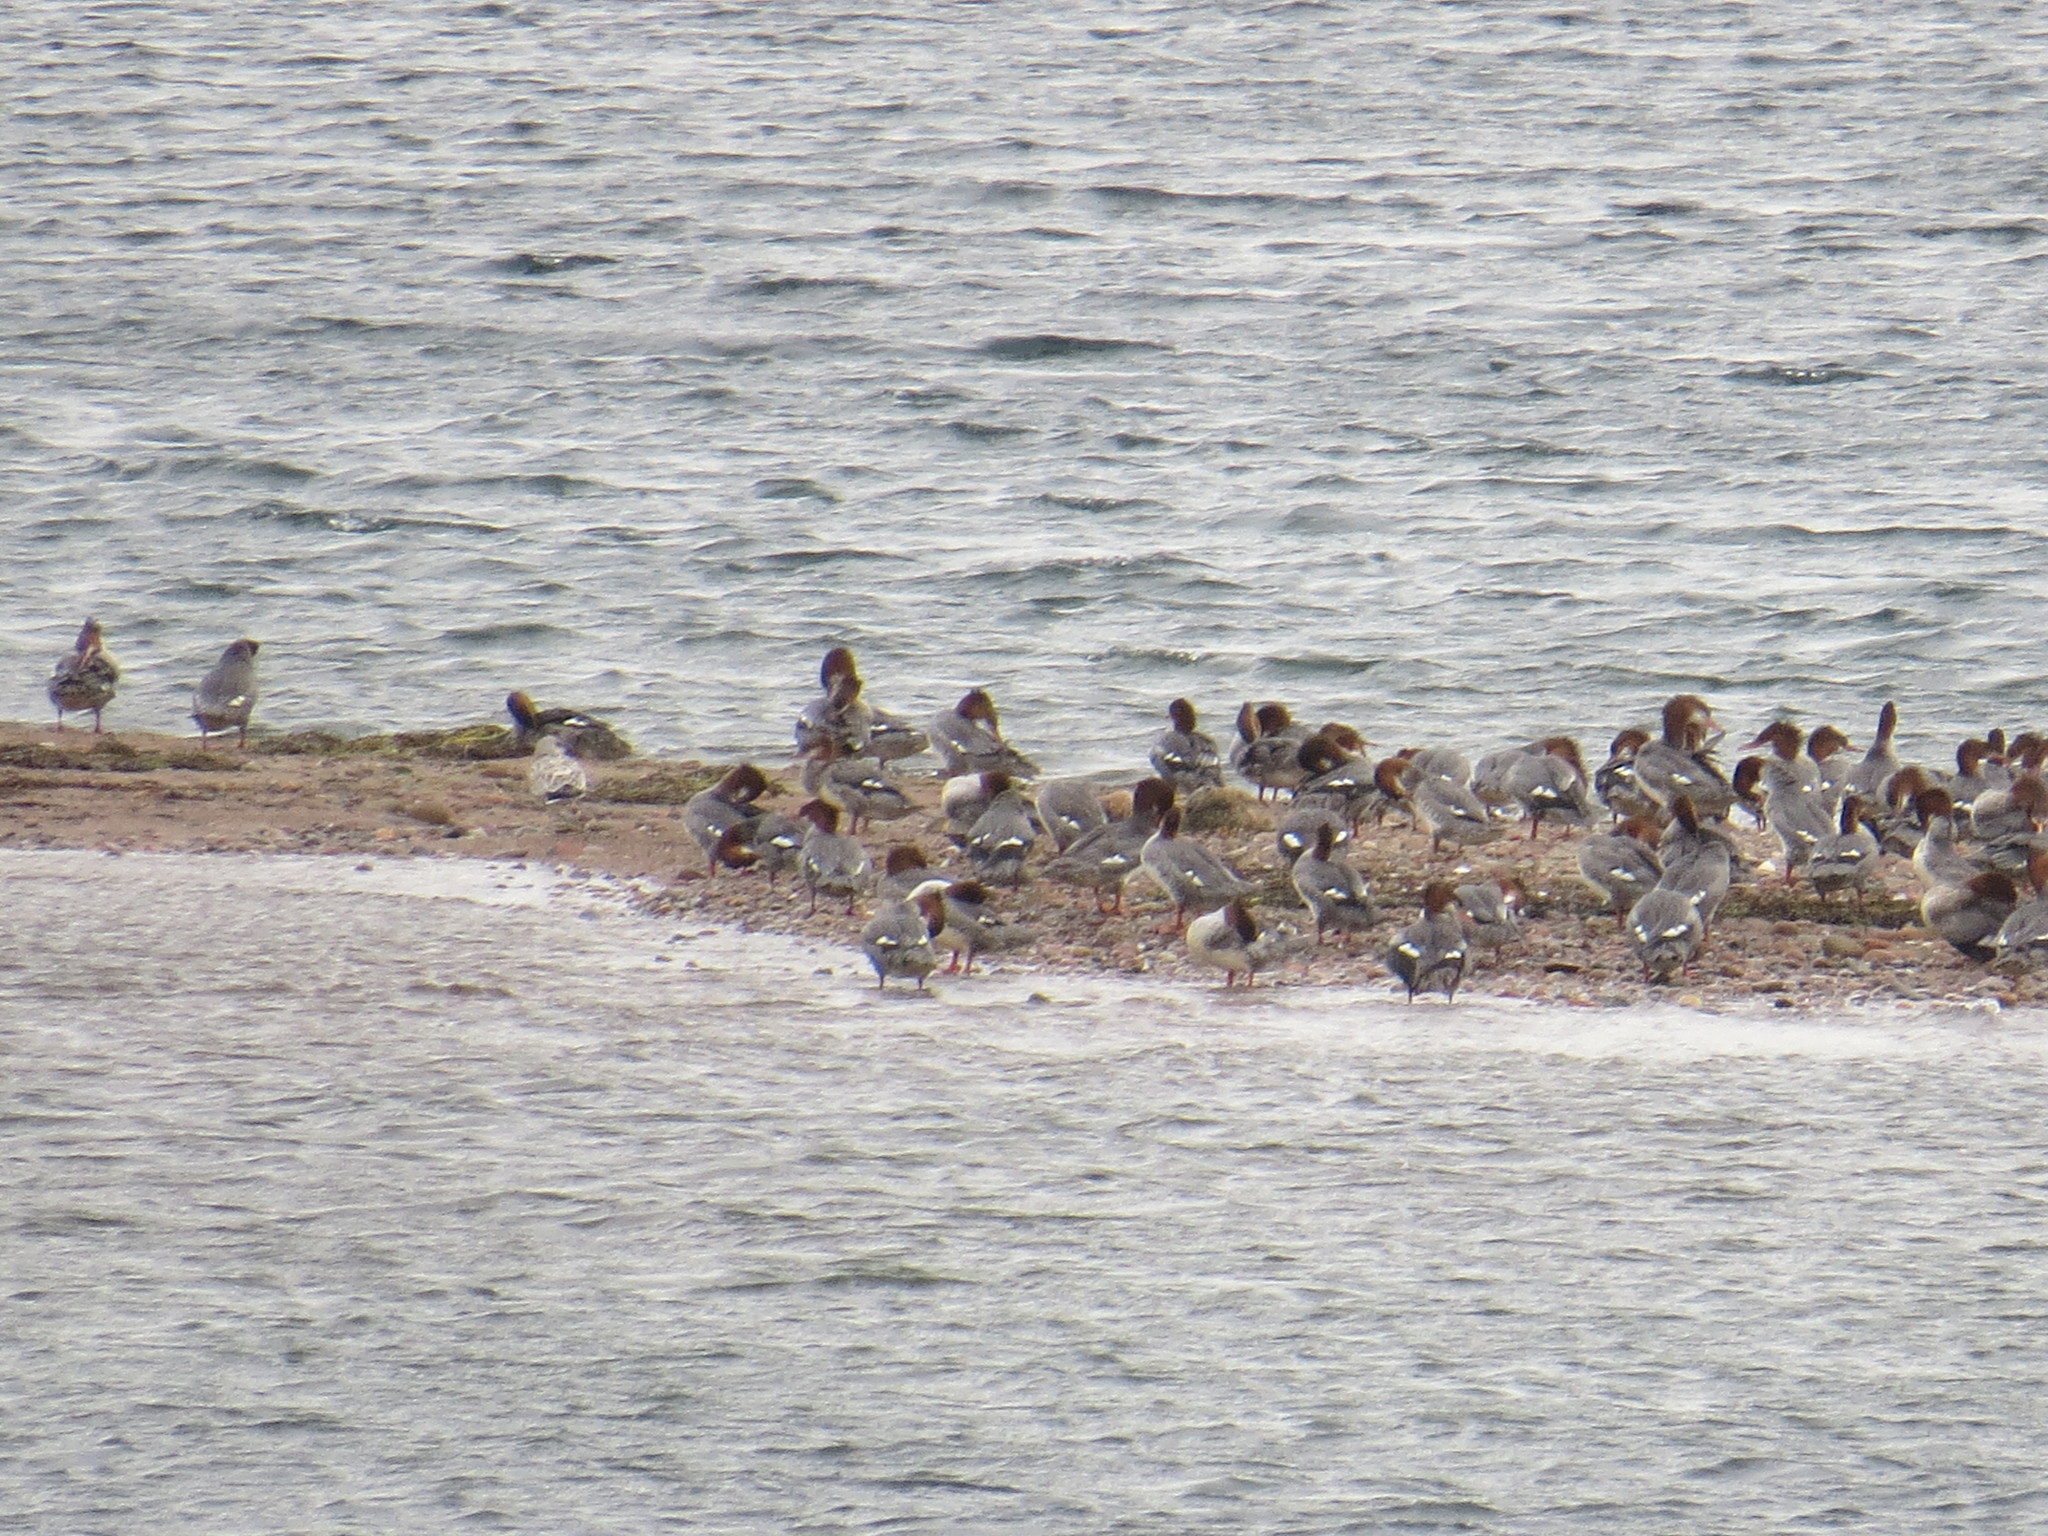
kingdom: Animalia
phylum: Chordata
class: Aves
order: Anseriformes
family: Anatidae
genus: Mergus
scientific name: Mergus merganser
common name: Common merganser
